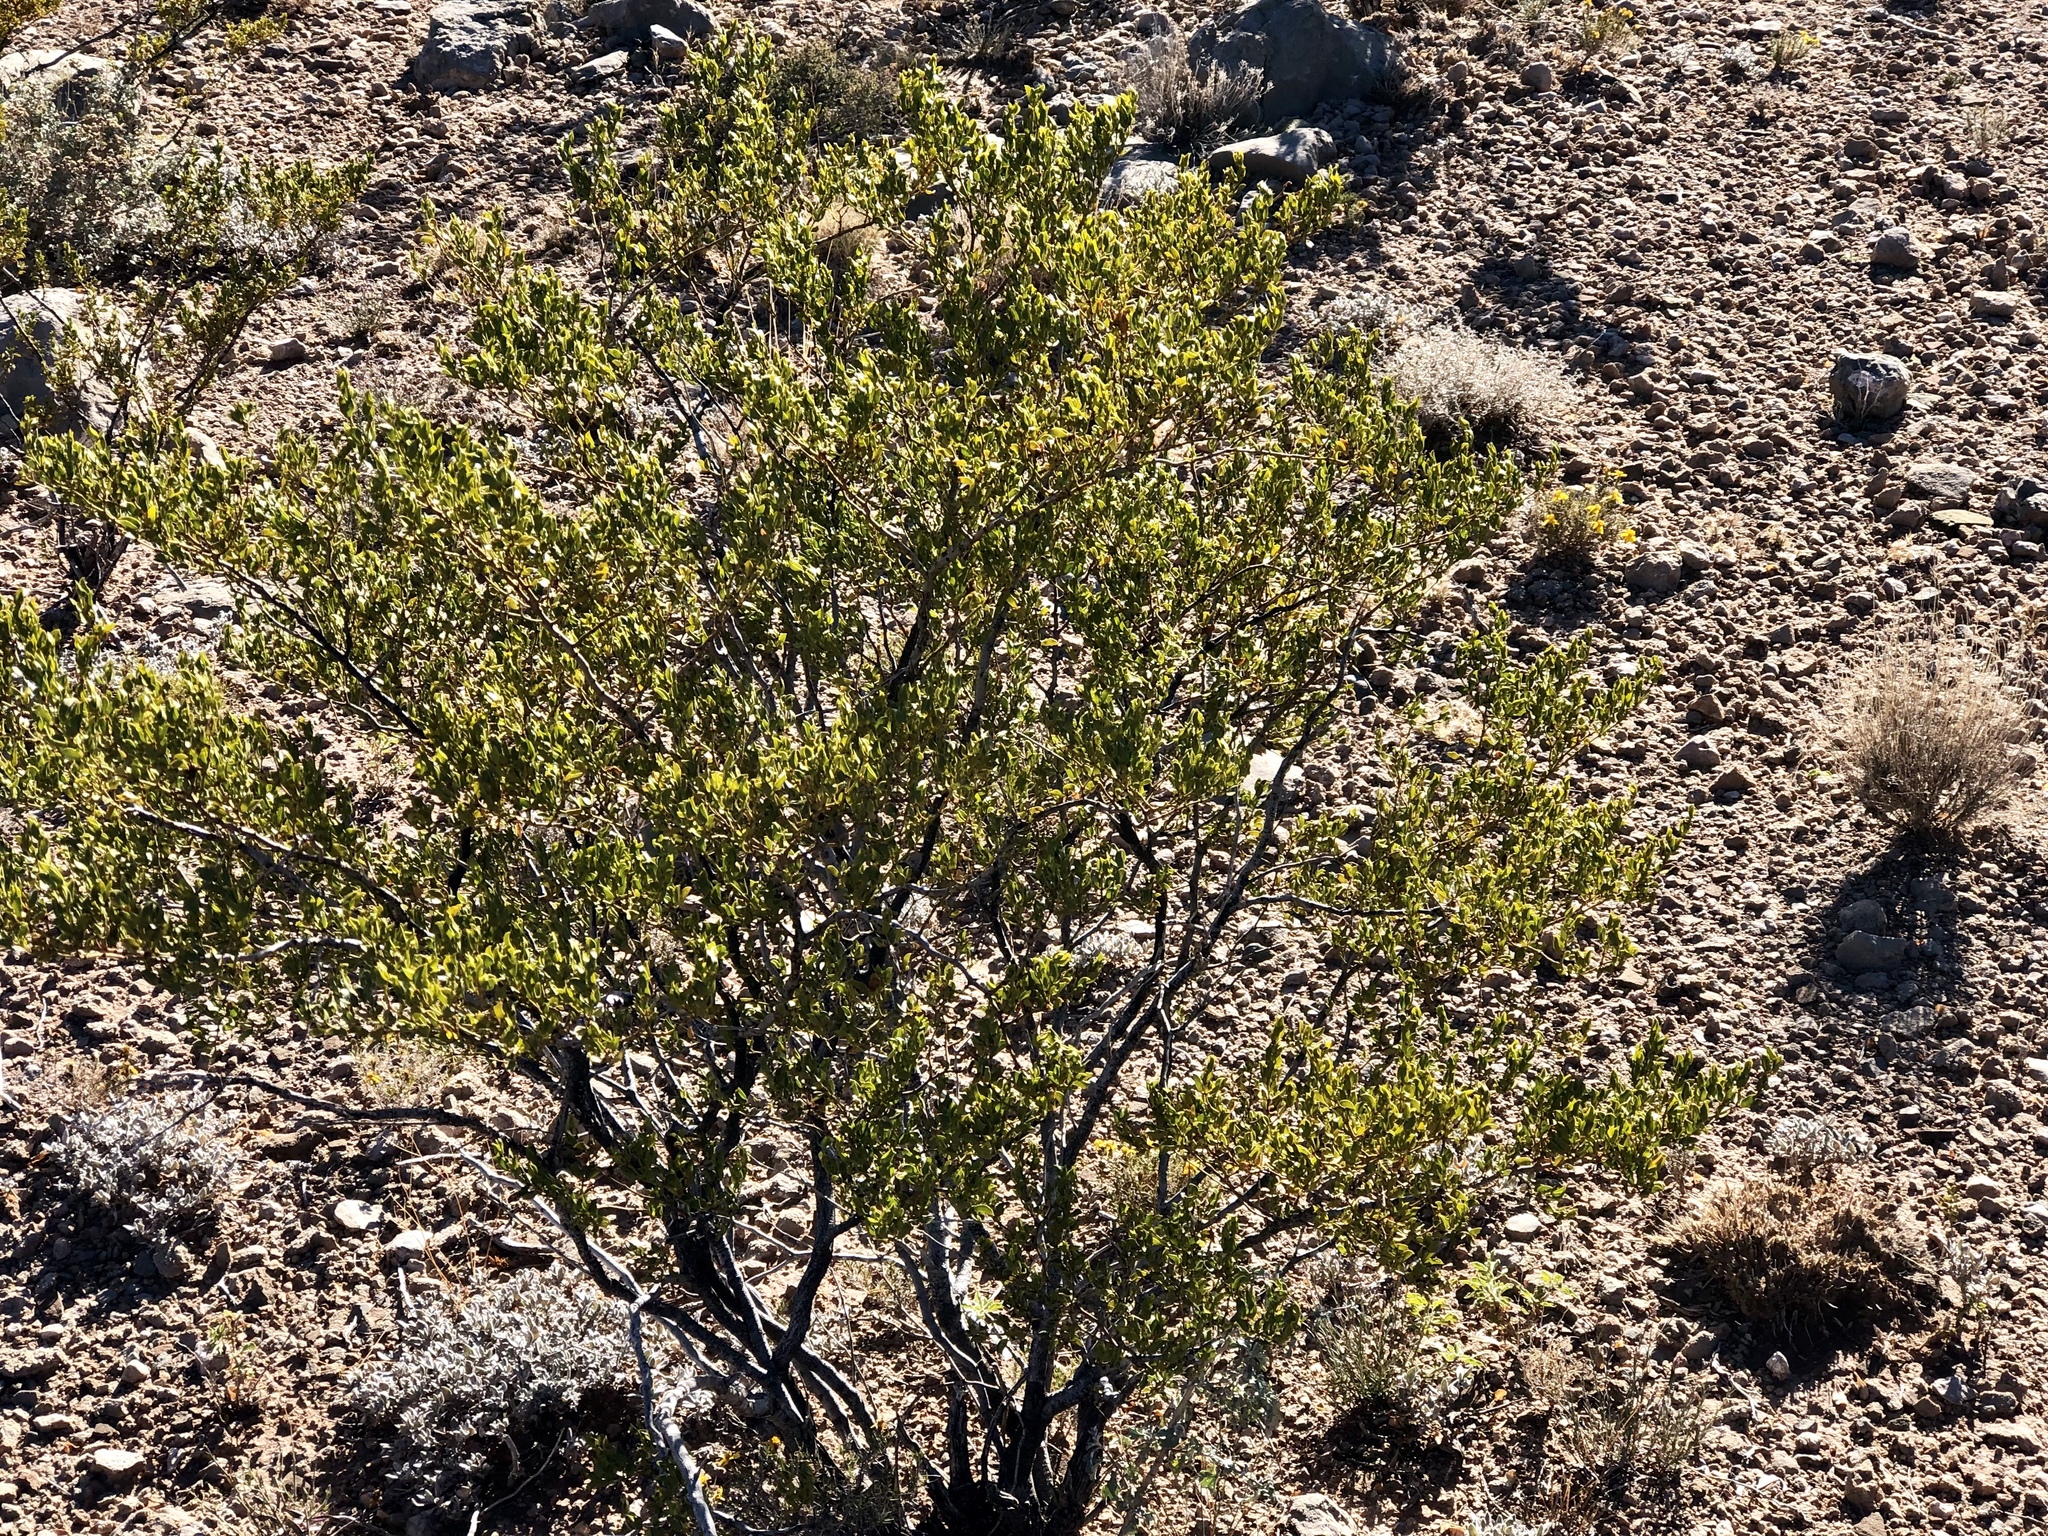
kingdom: Plantae
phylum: Tracheophyta
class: Magnoliopsida
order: Zygophyllales
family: Zygophyllaceae
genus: Larrea
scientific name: Larrea tridentata
